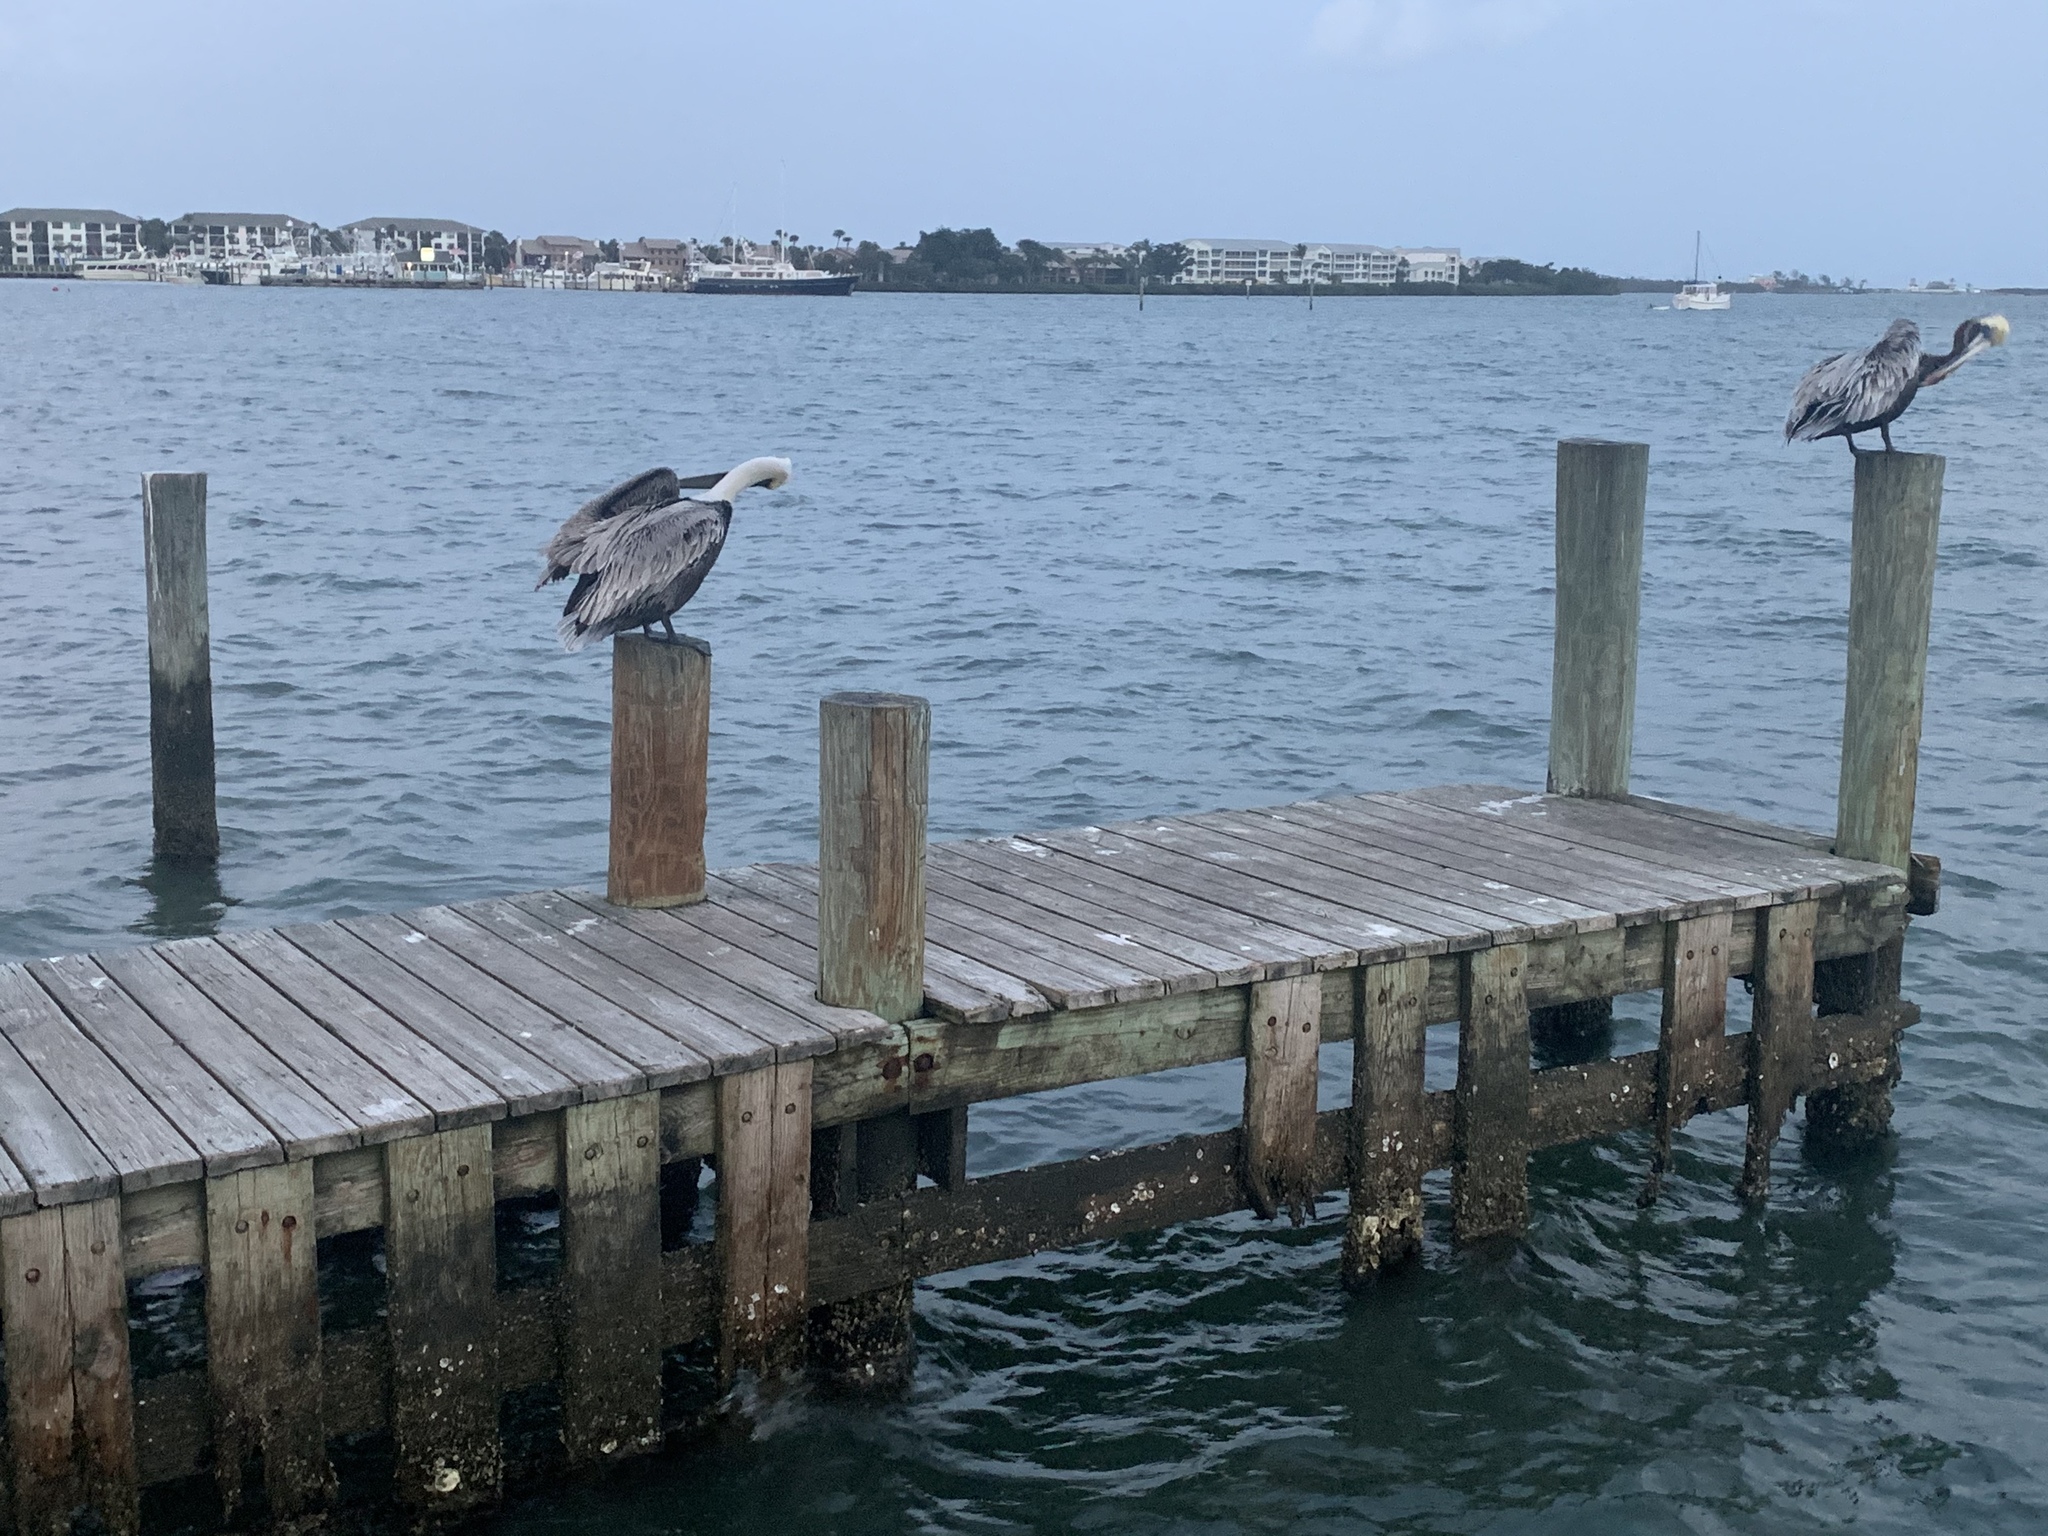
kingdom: Animalia
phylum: Chordata
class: Aves
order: Pelecaniformes
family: Pelecanidae
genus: Pelecanus
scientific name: Pelecanus occidentalis
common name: Brown pelican
